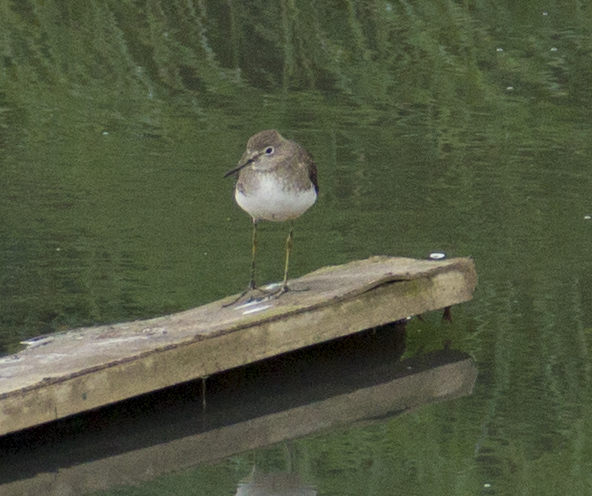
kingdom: Animalia
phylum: Chordata
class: Aves
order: Charadriiformes
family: Scolopacidae
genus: Tringa
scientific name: Tringa solitaria
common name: Solitary sandpiper
